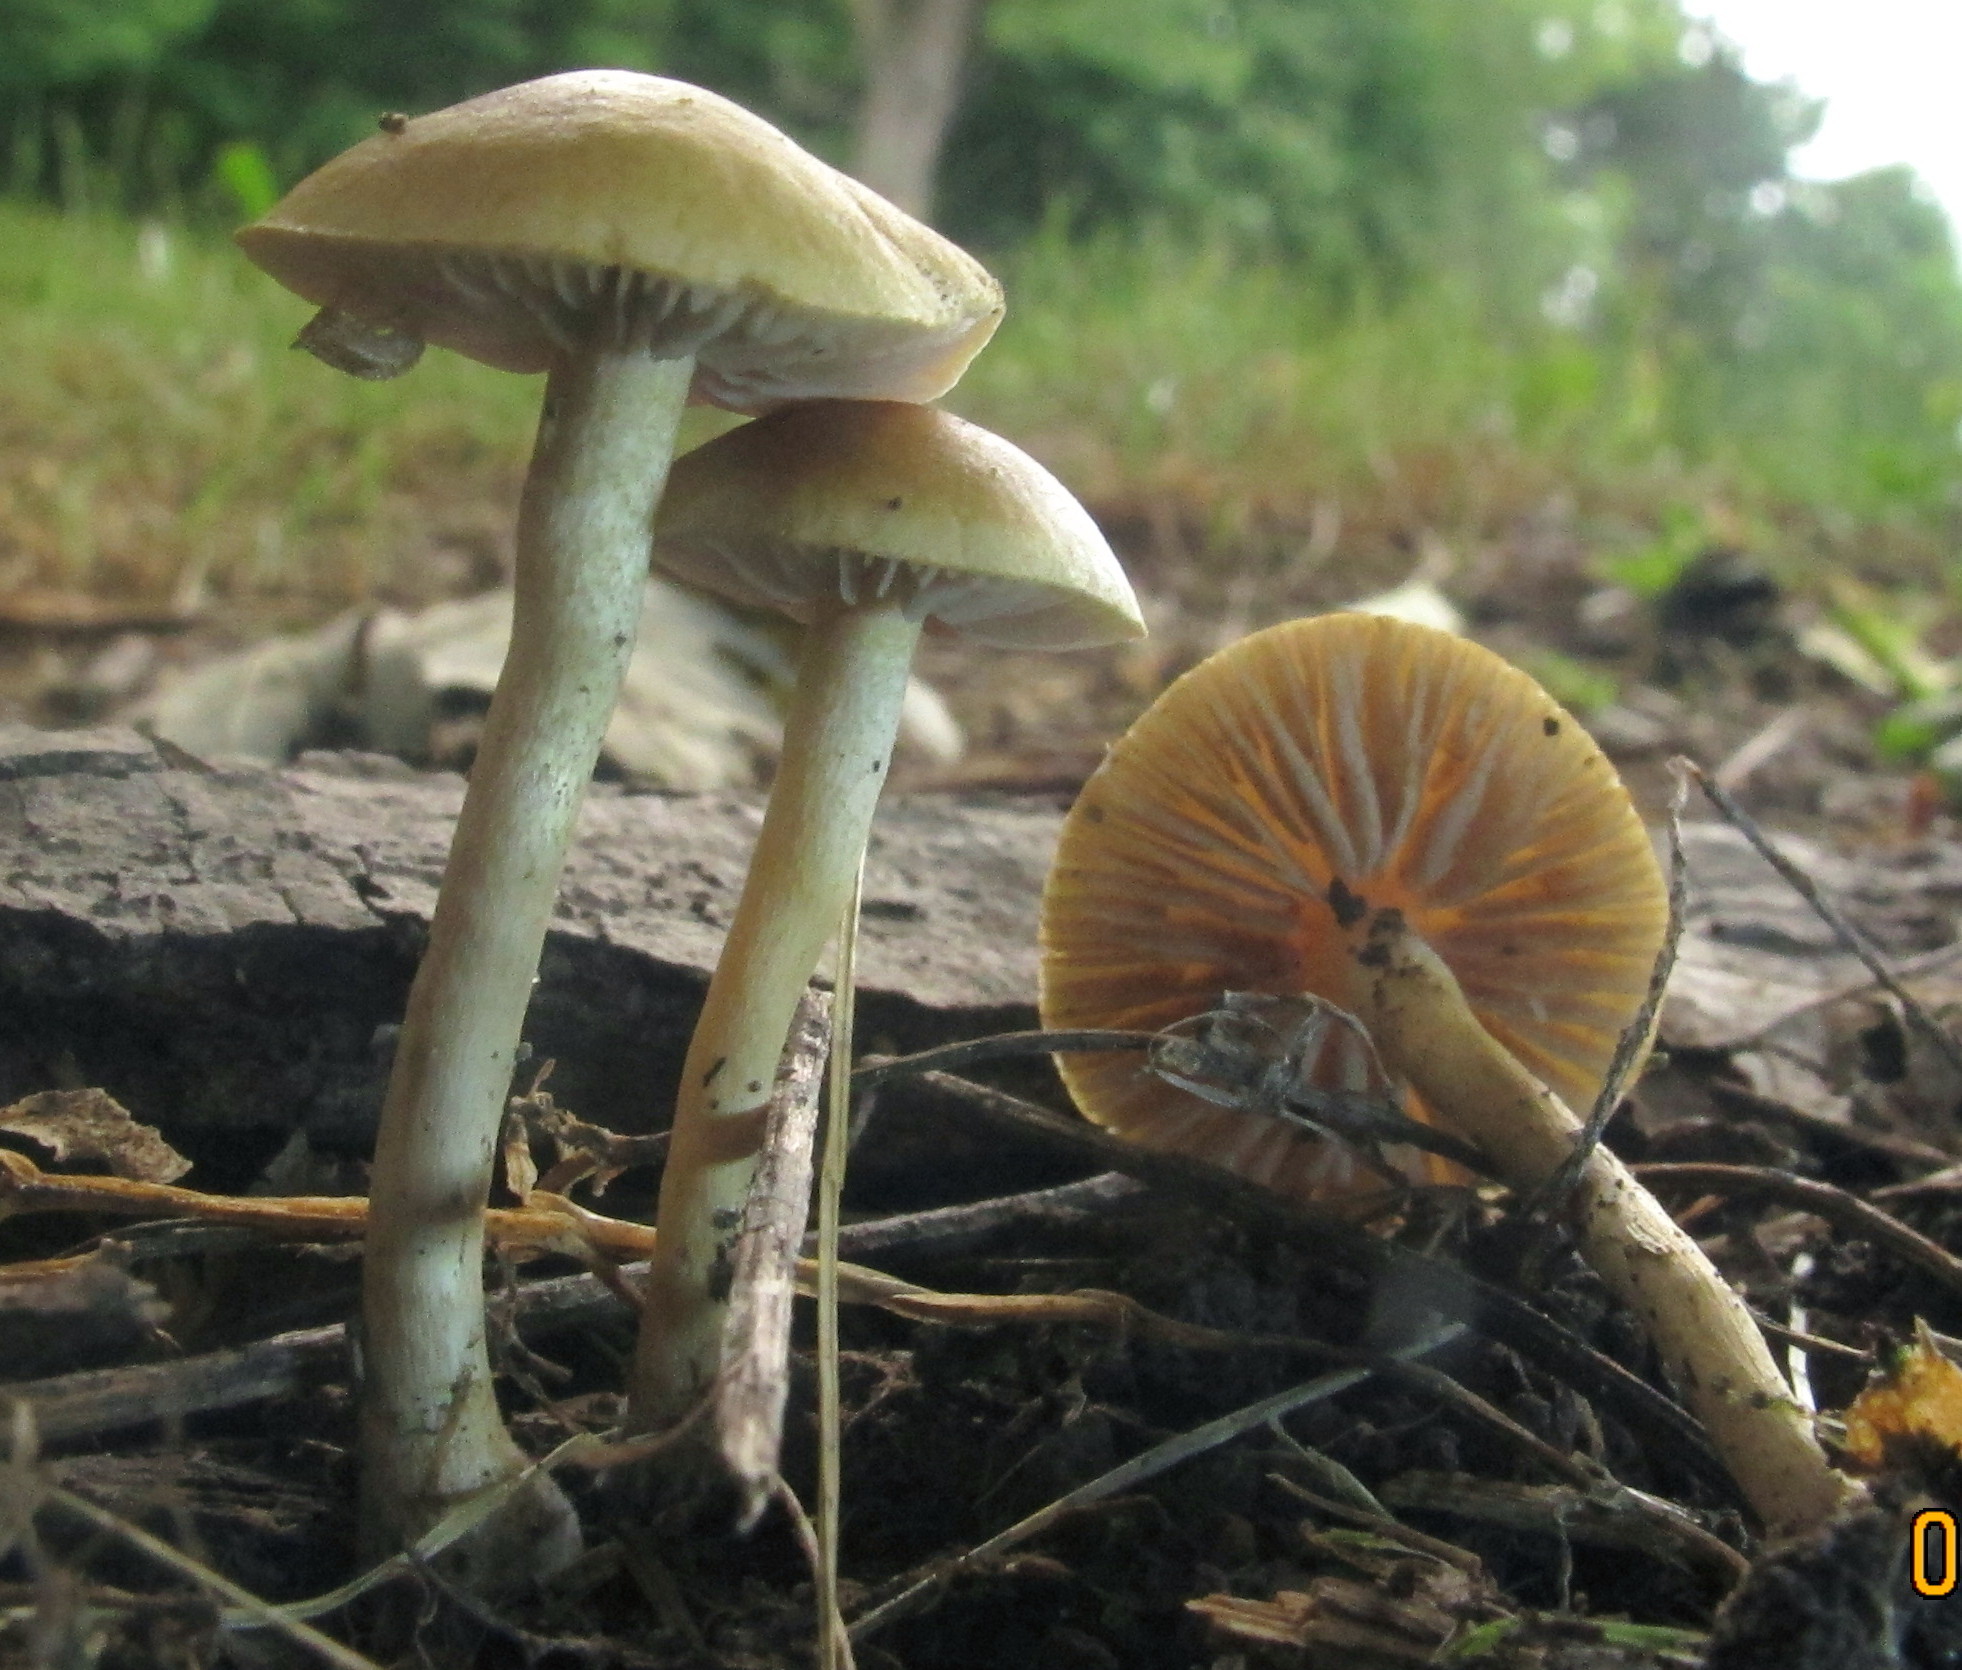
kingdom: Fungi
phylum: Basidiomycota
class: Agaricomycetes
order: Agaricales
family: Strophariaceae
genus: Agrocybe
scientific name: Agrocybe pediades
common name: Common fieldcap
